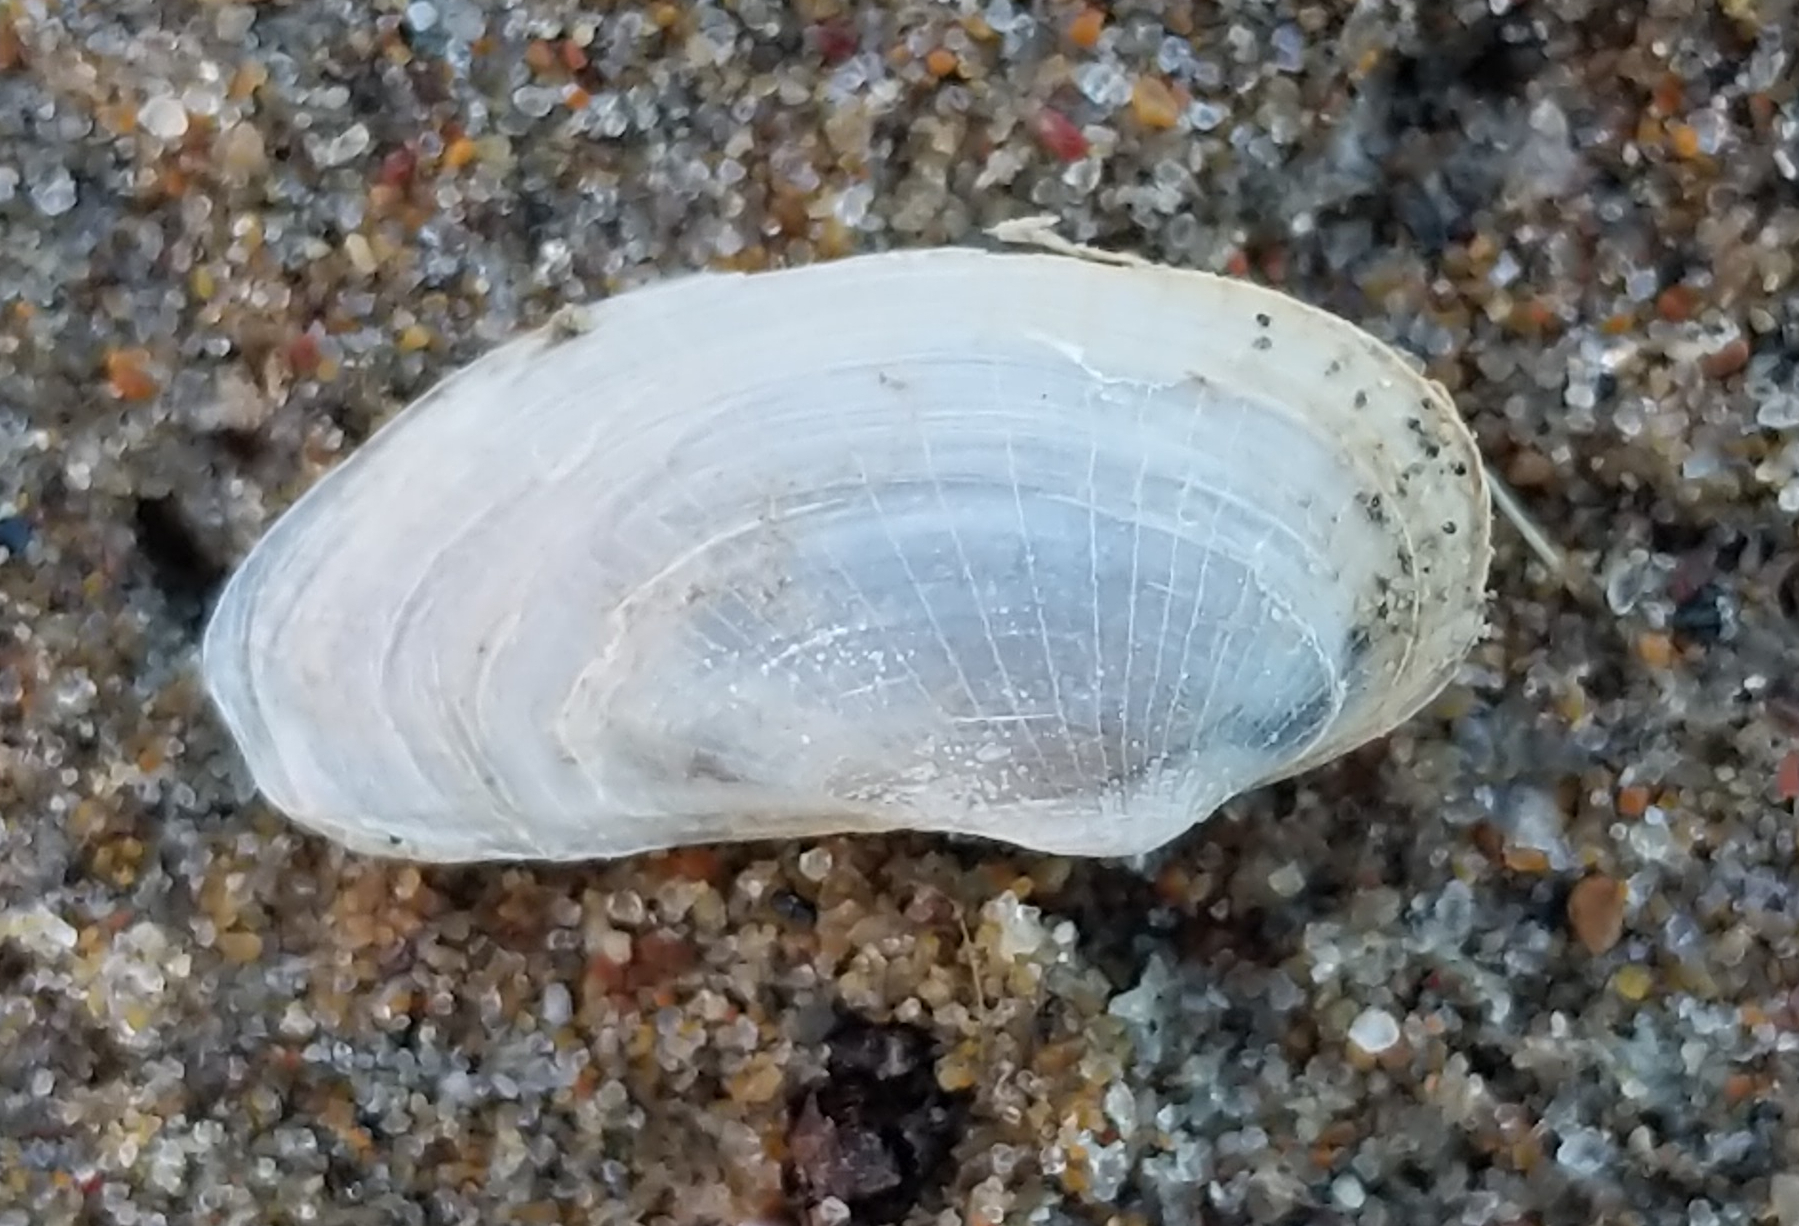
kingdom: Animalia
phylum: Mollusca
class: Bivalvia
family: Lyonsiidae
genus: Lyonsia
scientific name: Lyonsia californica
